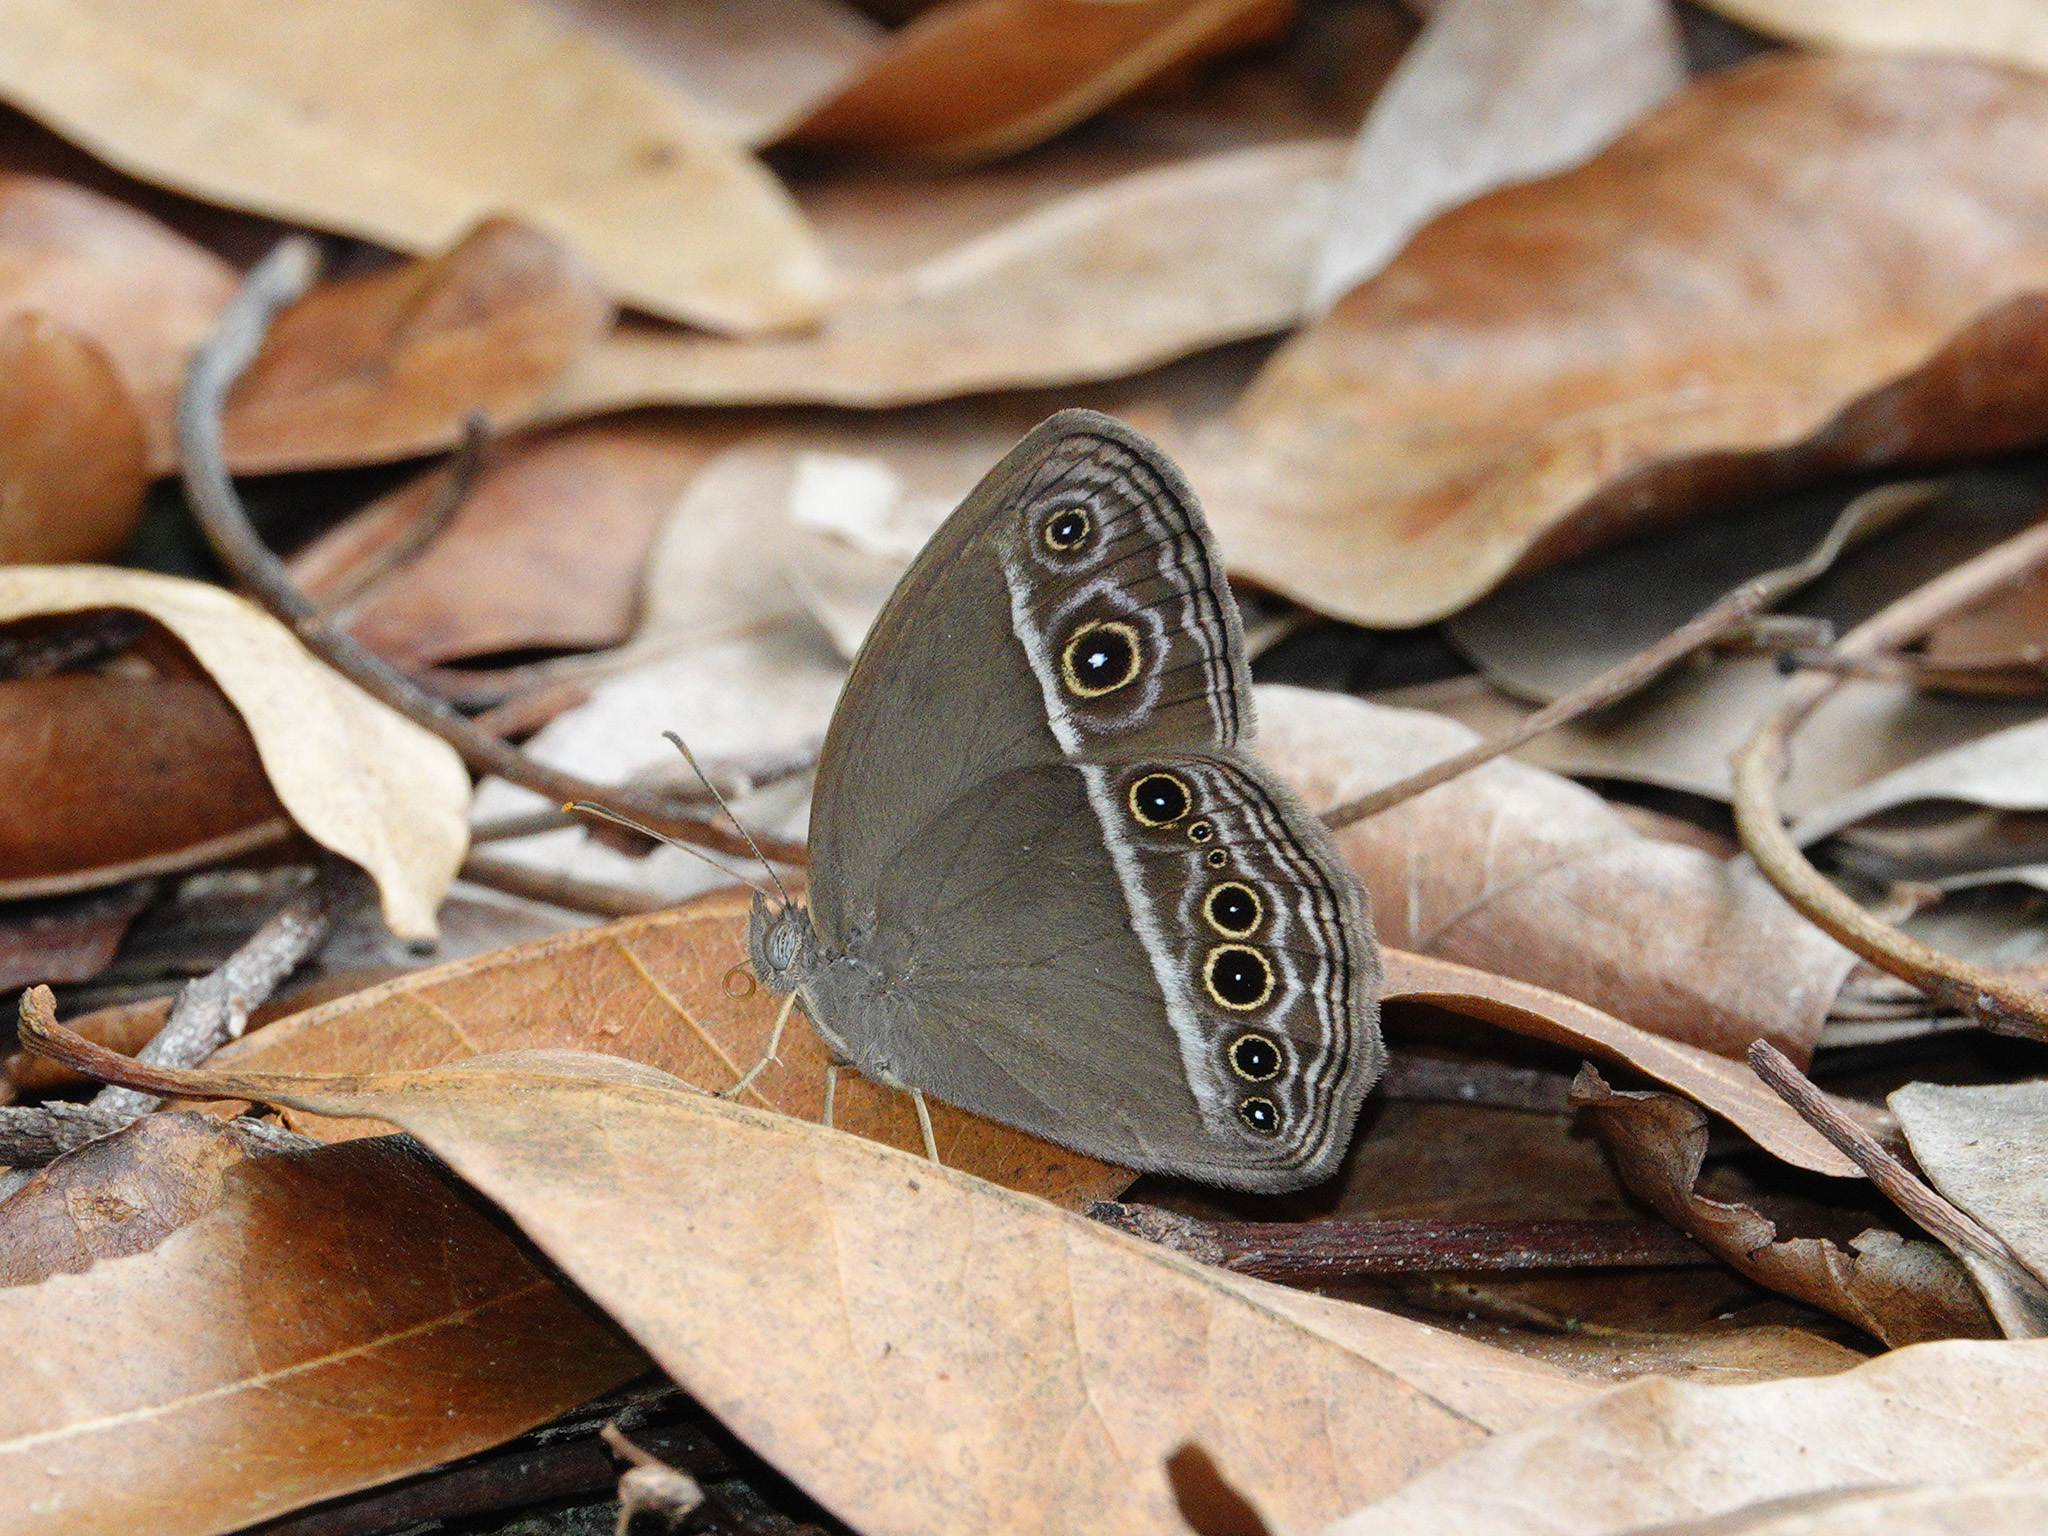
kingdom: Animalia
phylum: Arthropoda
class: Insecta
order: Lepidoptera
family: Nymphalidae
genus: Mycalesis
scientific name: Mycalesis mineus
